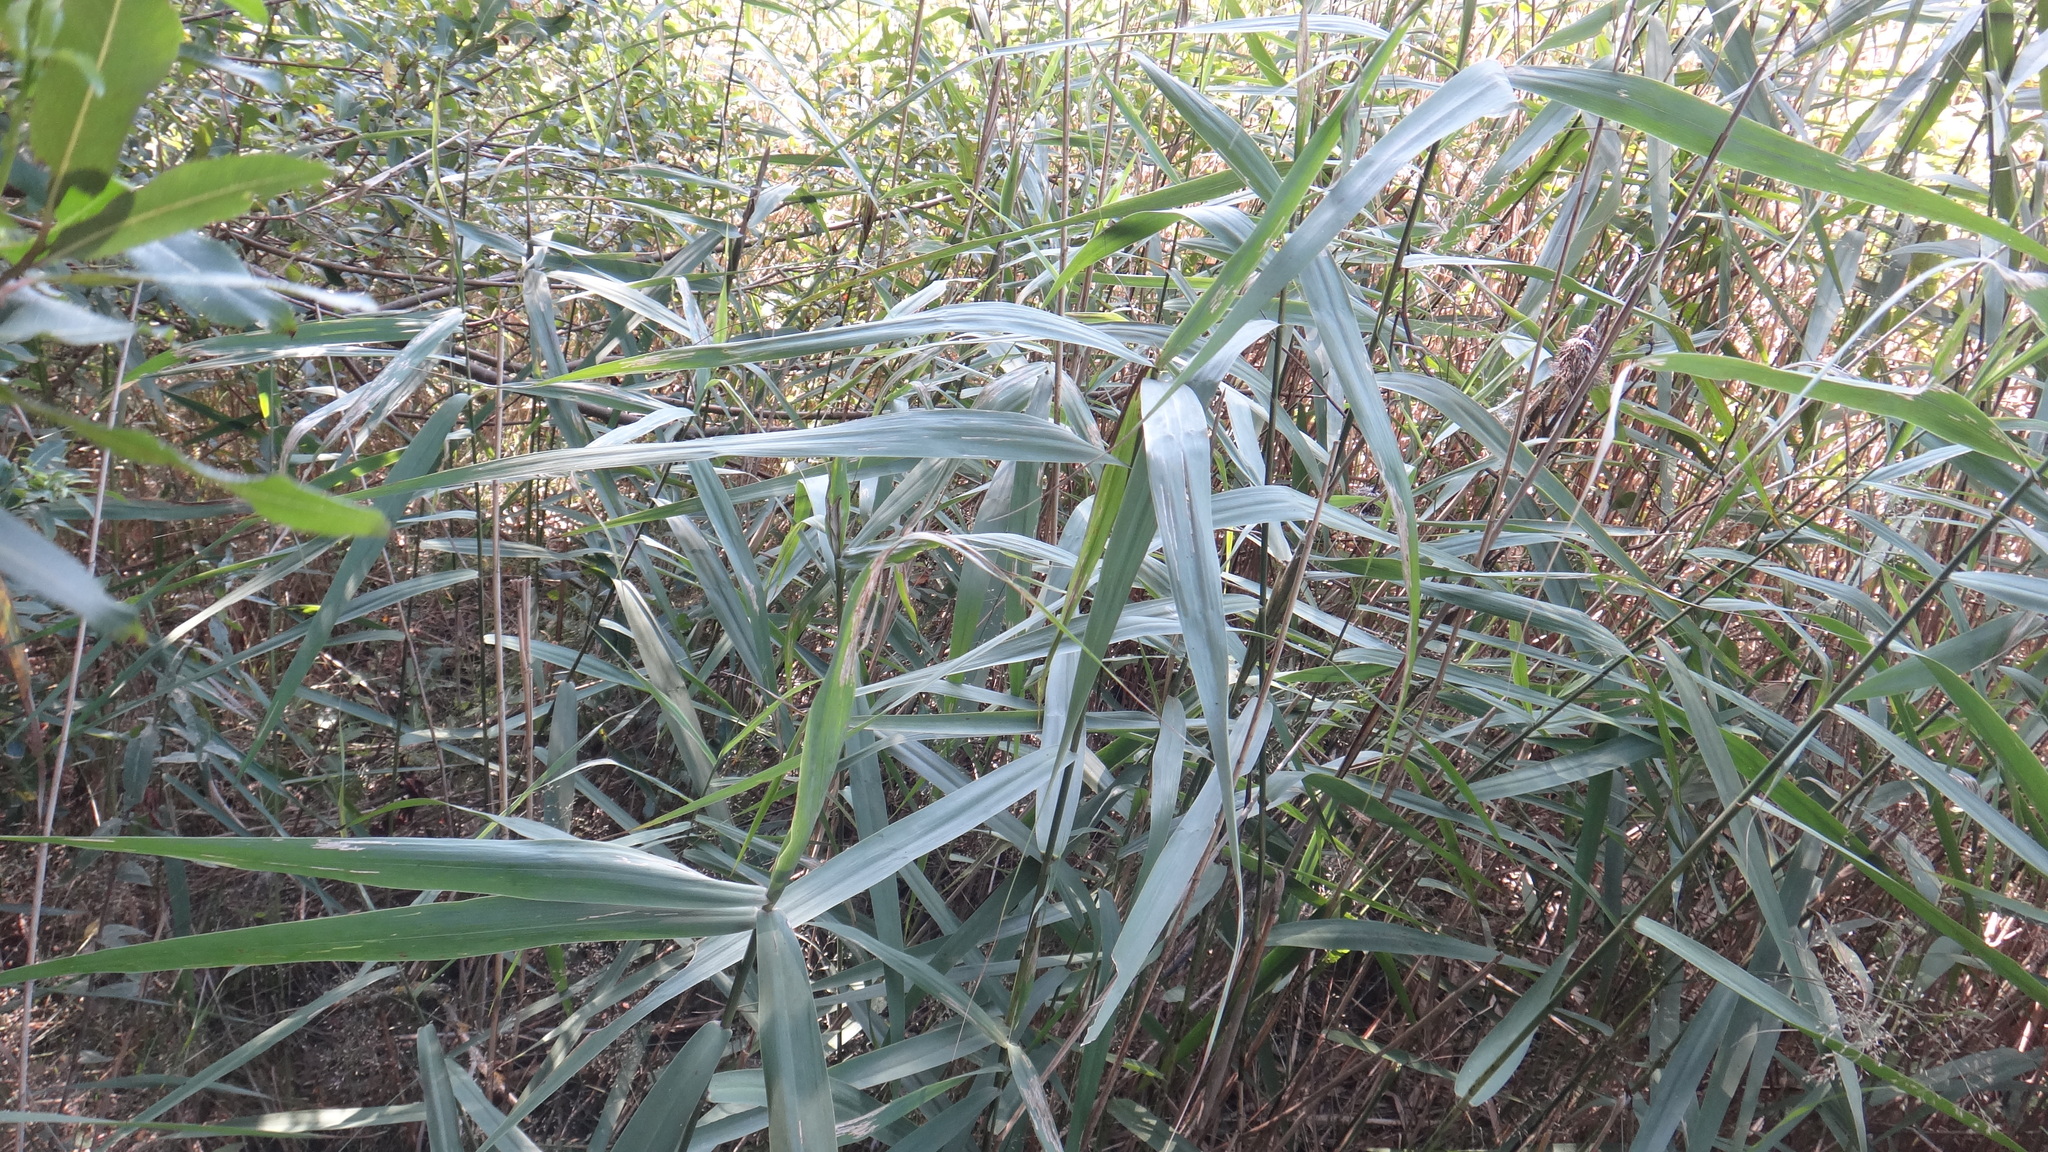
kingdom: Plantae
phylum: Tracheophyta
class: Liliopsida
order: Poales
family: Poaceae
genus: Phragmites
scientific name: Phragmites australis
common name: Common reed
